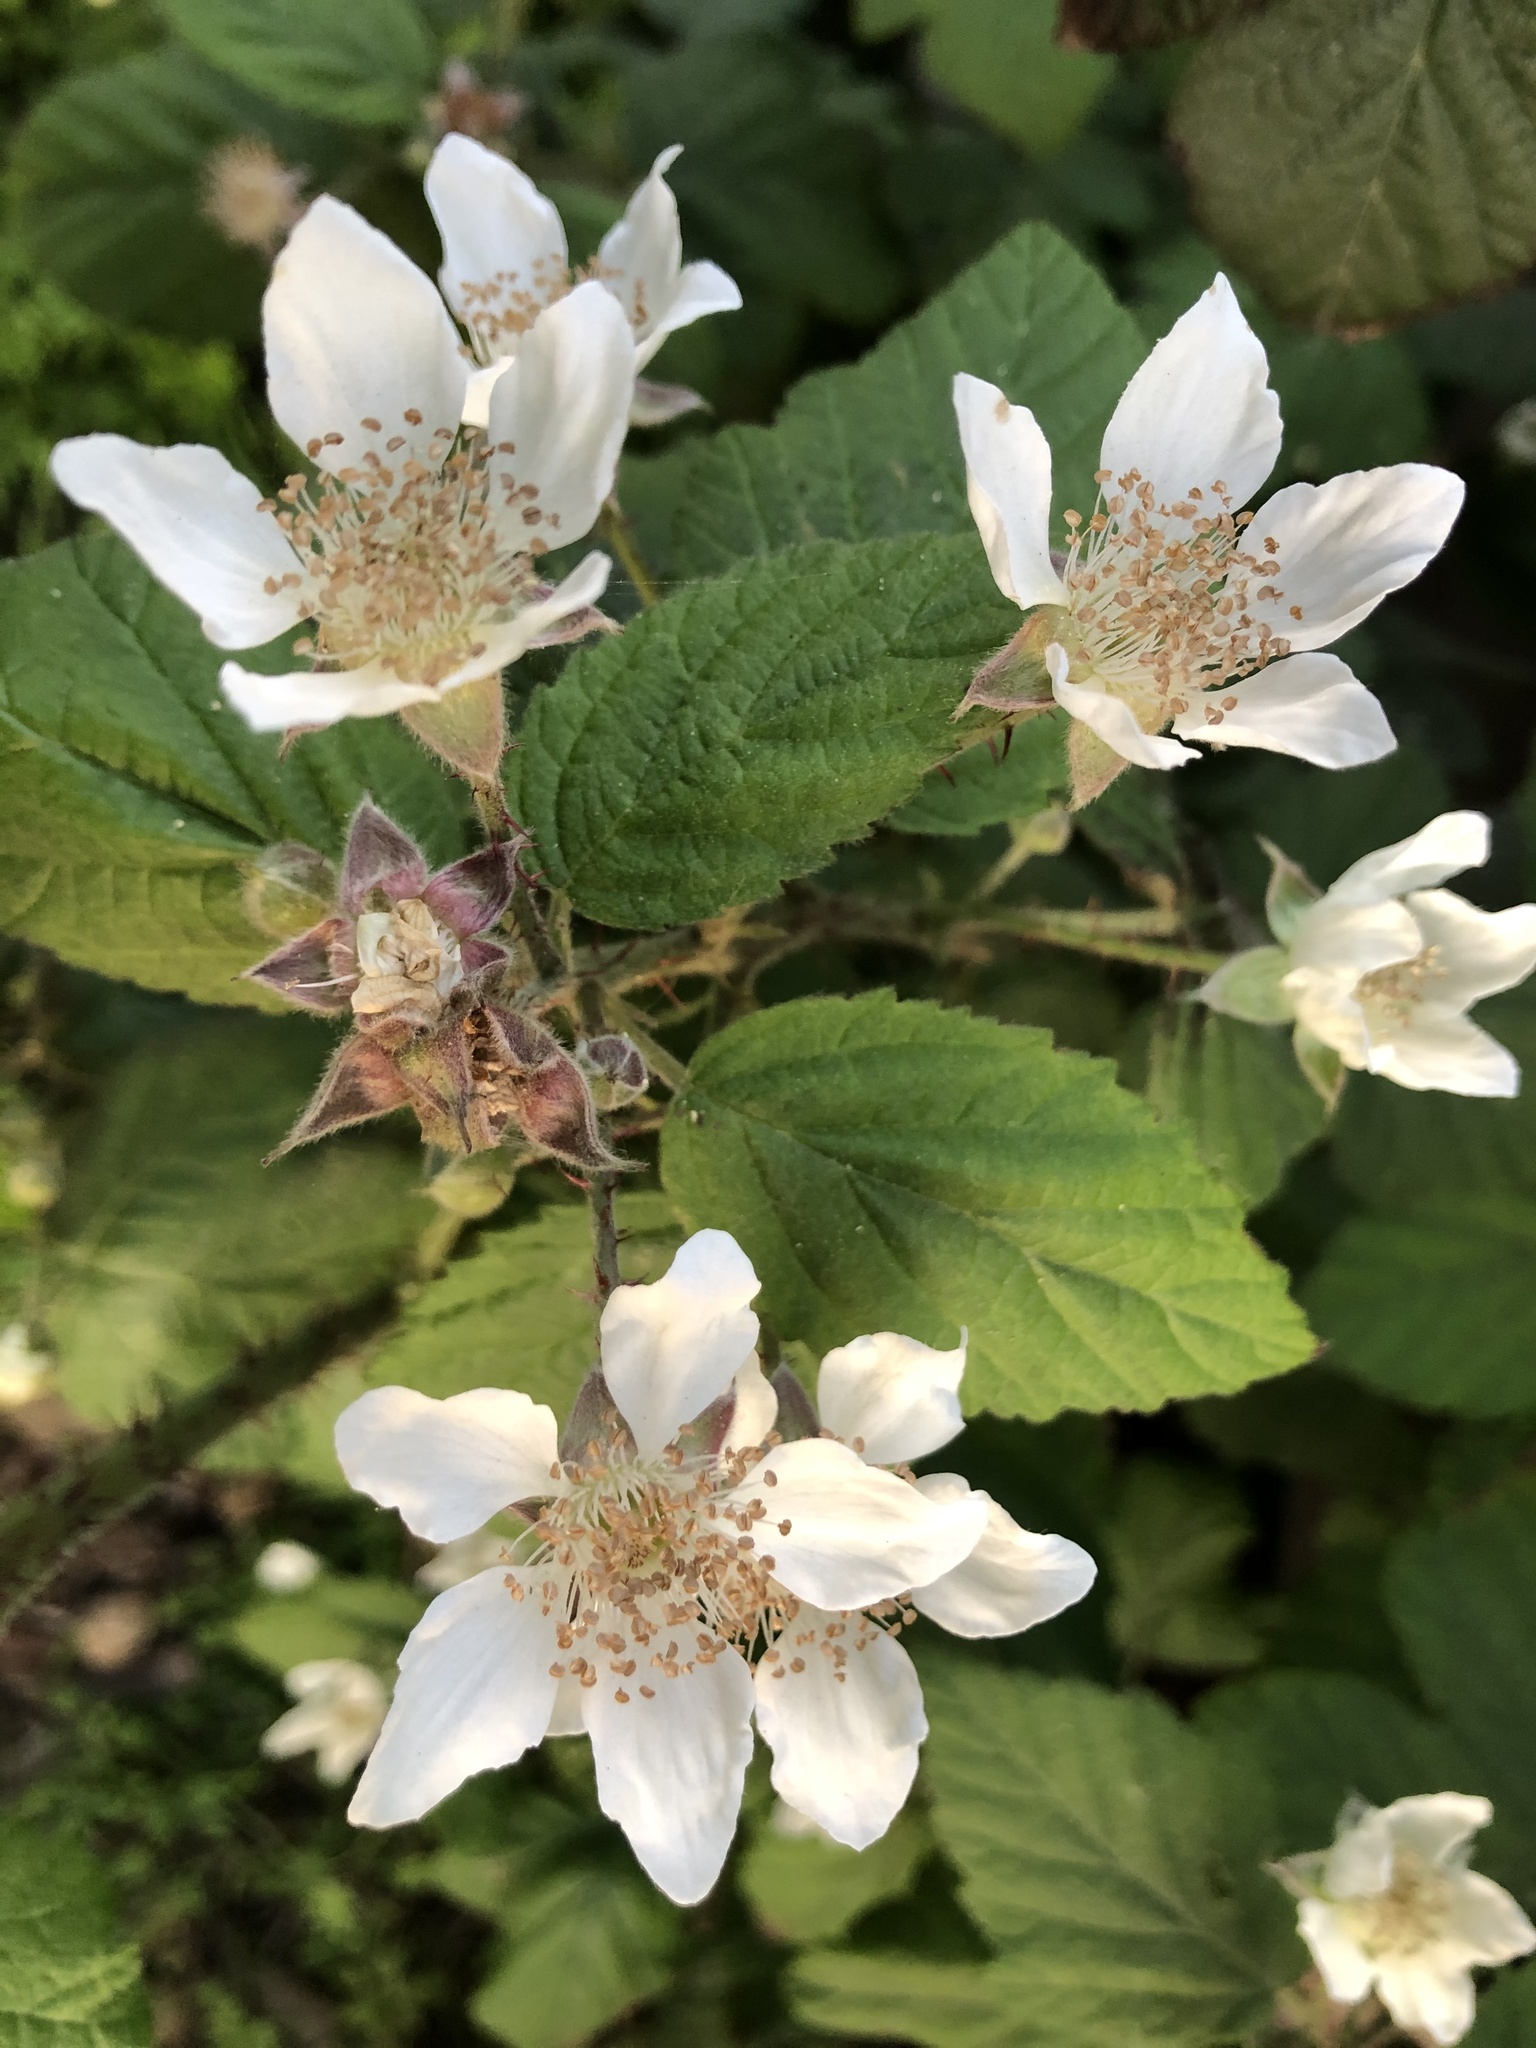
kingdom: Plantae
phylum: Tracheophyta
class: Magnoliopsida
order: Rosales
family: Rosaceae
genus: Rubus
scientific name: Rubus ursinus
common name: Pacific blackberry
